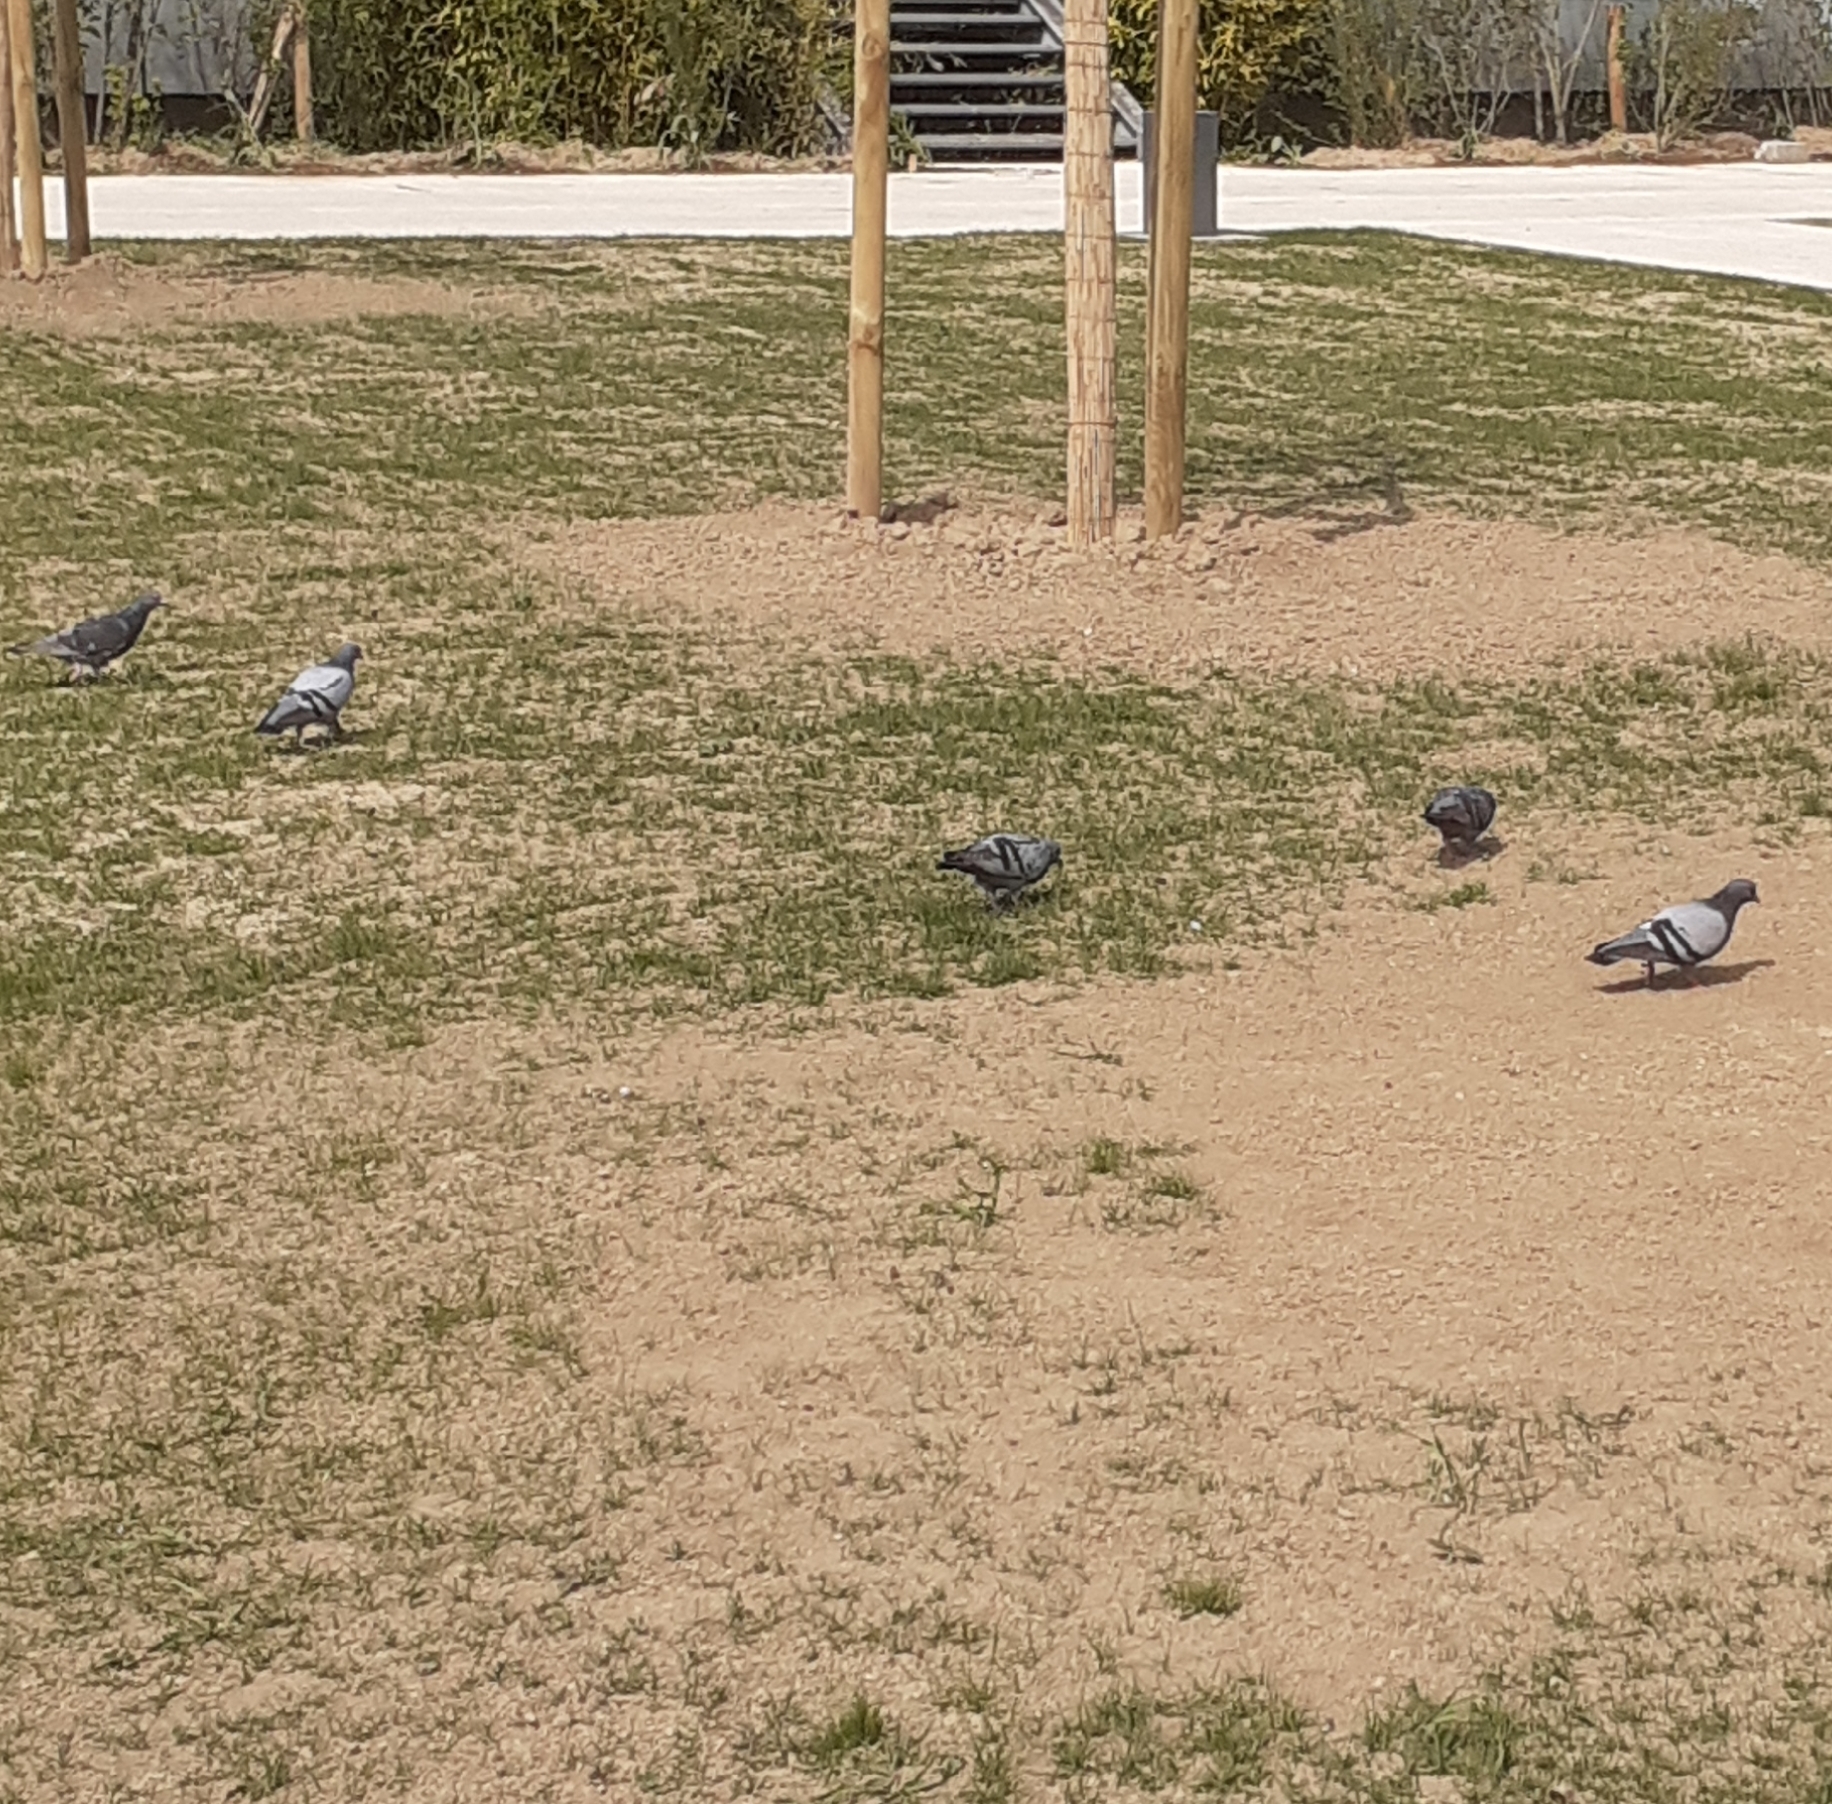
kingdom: Animalia
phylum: Chordata
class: Aves
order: Columbiformes
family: Columbidae
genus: Columba
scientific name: Columba livia
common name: Rock pigeon
